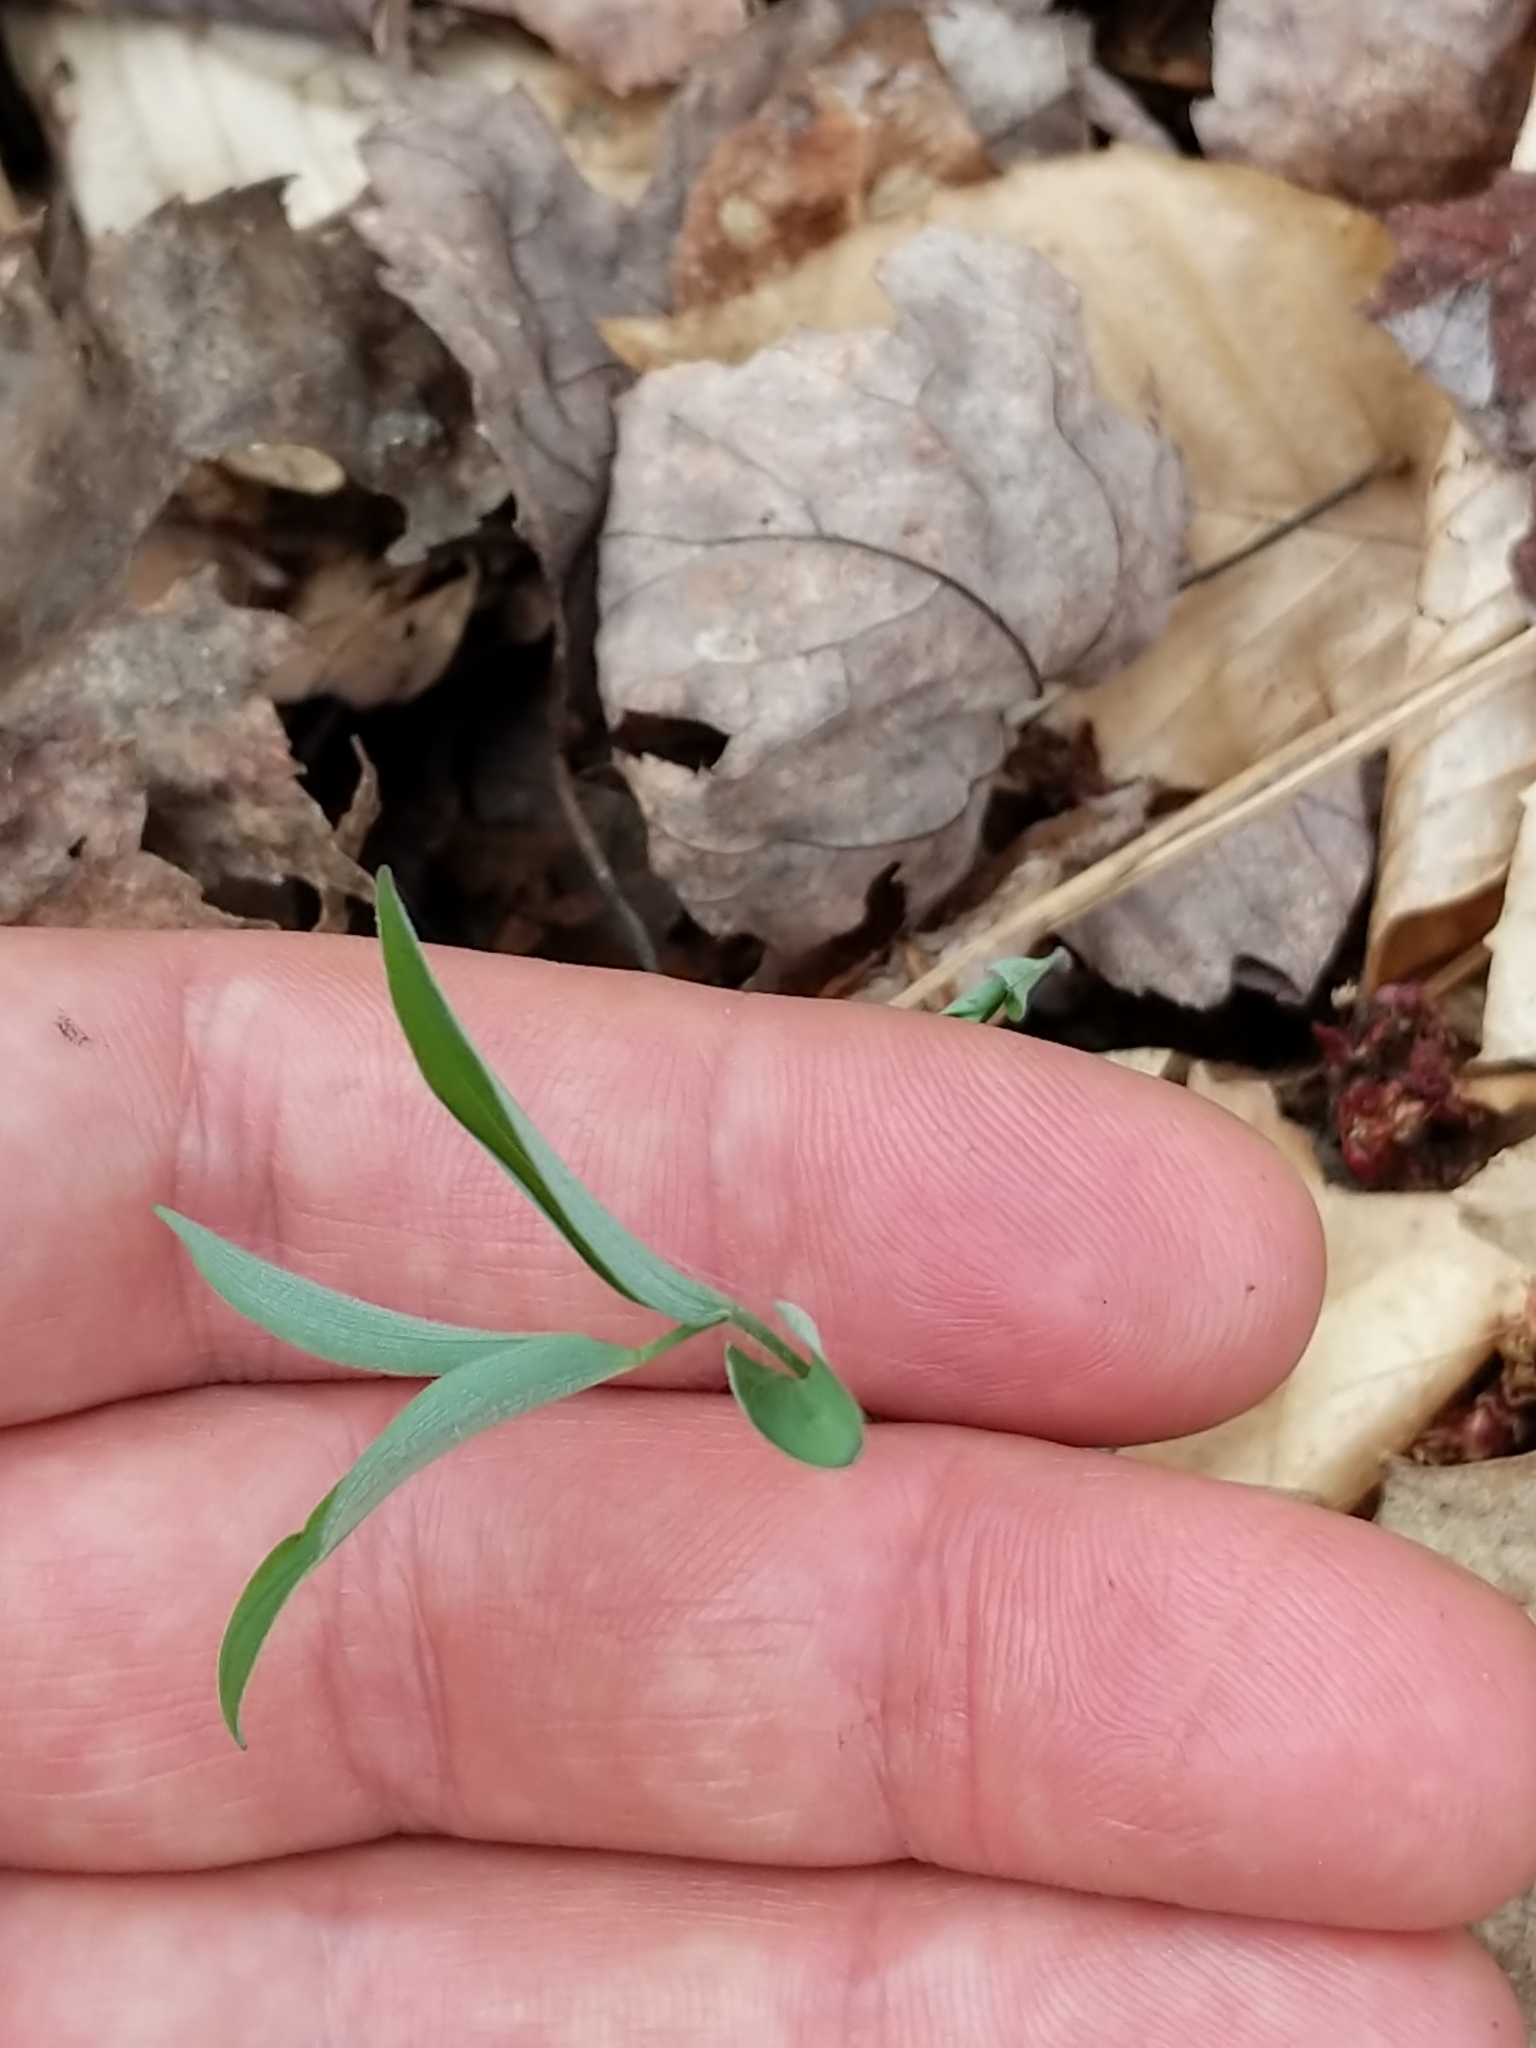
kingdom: Plantae
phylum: Tracheophyta
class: Liliopsida
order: Asparagales
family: Asparagaceae
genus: Polygonatum
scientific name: Polygonatum pubescens
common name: Downy solomon's seal
